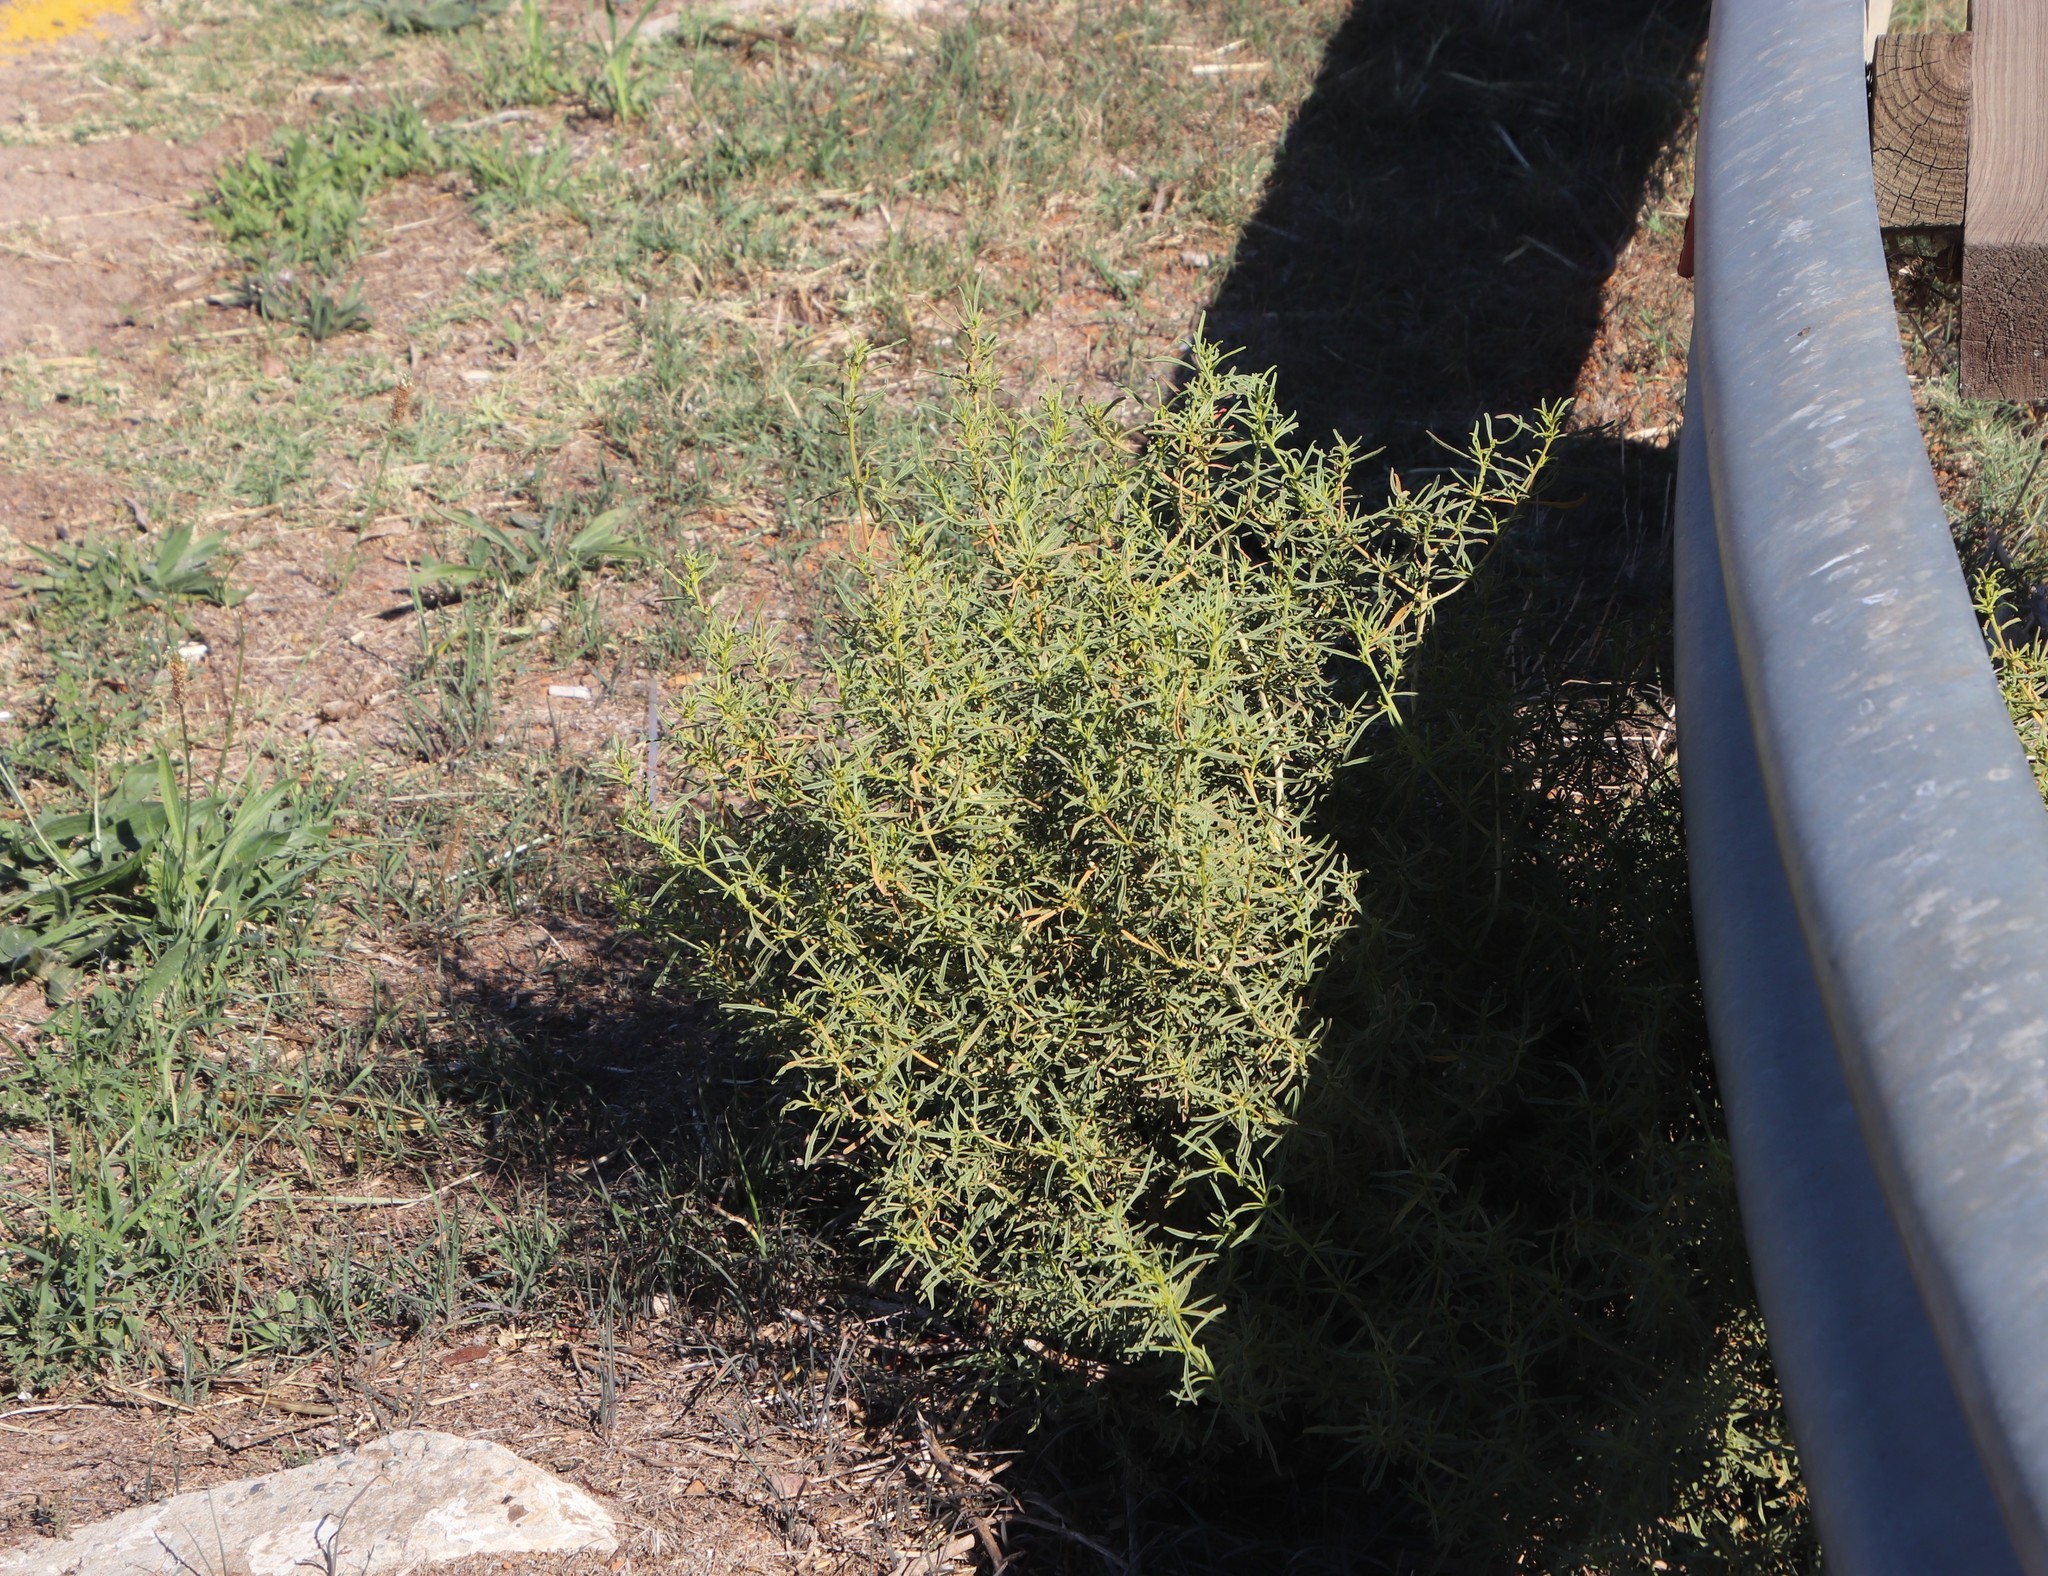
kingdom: Plantae
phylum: Tracheophyta
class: Magnoliopsida
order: Caryophyllales
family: Aizoaceae
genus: Aizoon
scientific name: Aizoon africanum
